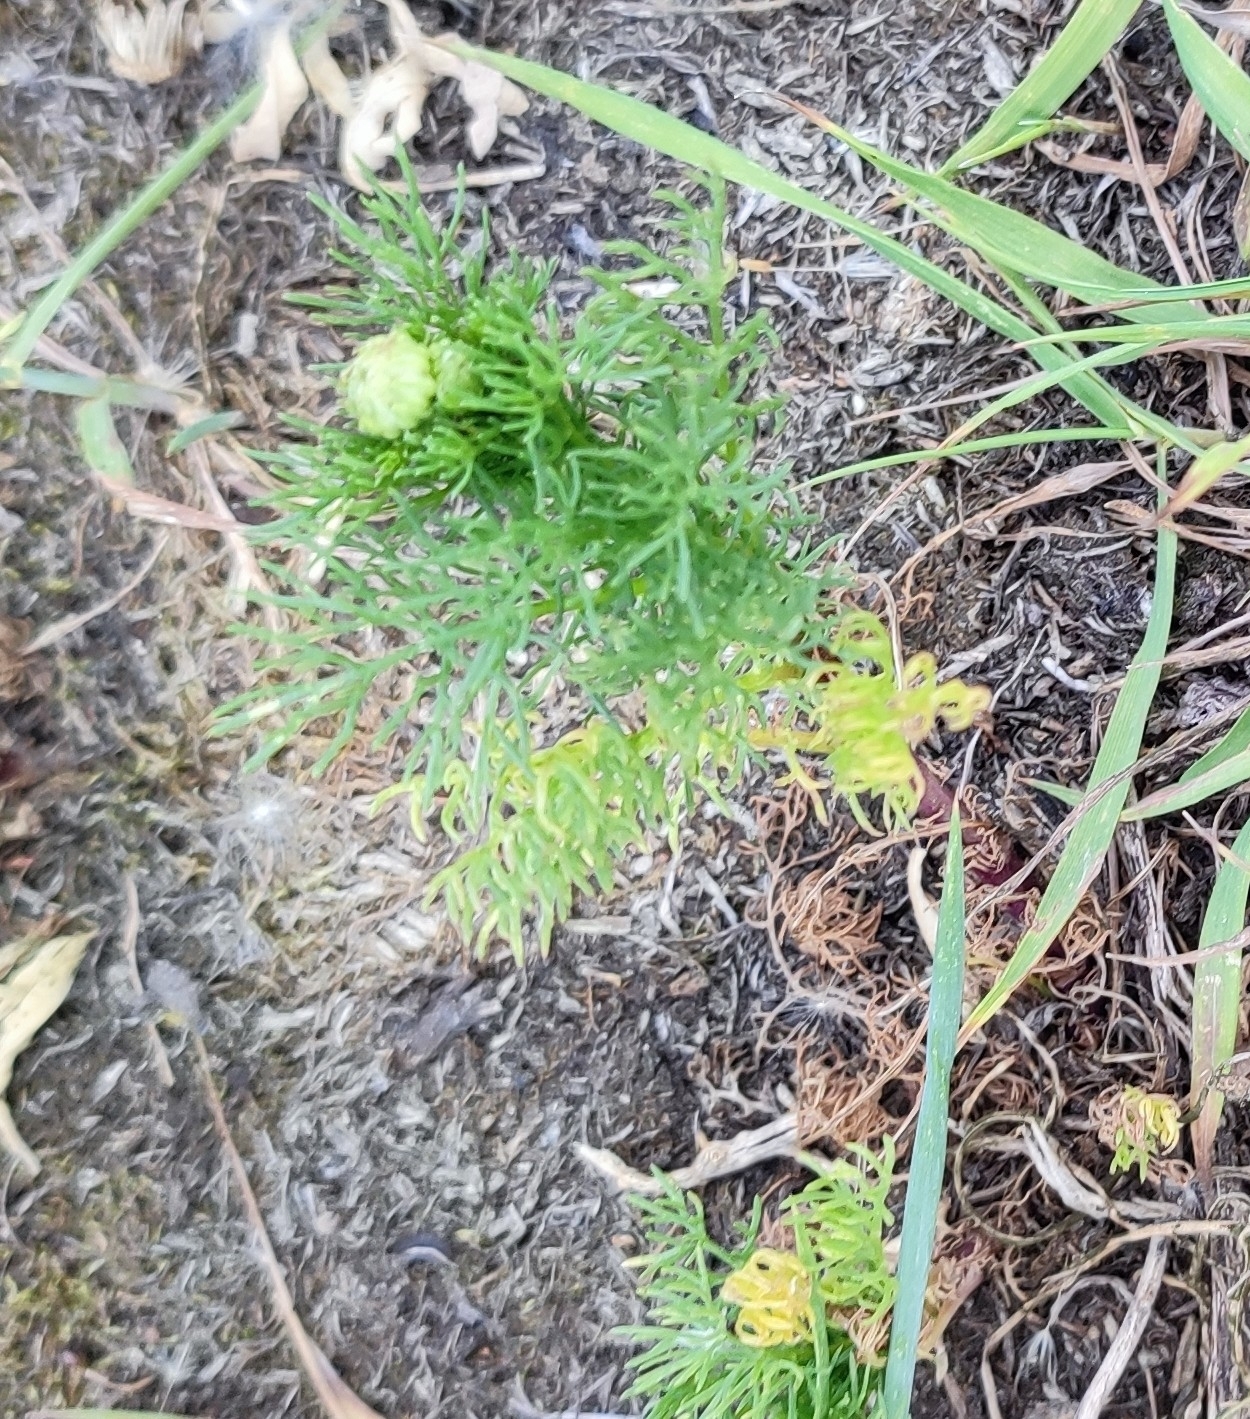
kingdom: Plantae
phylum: Tracheophyta
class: Magnoliopsida
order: Asterales
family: Asteraceae
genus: Tripleurospermum
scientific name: Tripleurospermum inodorum
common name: Scentless mayweed
